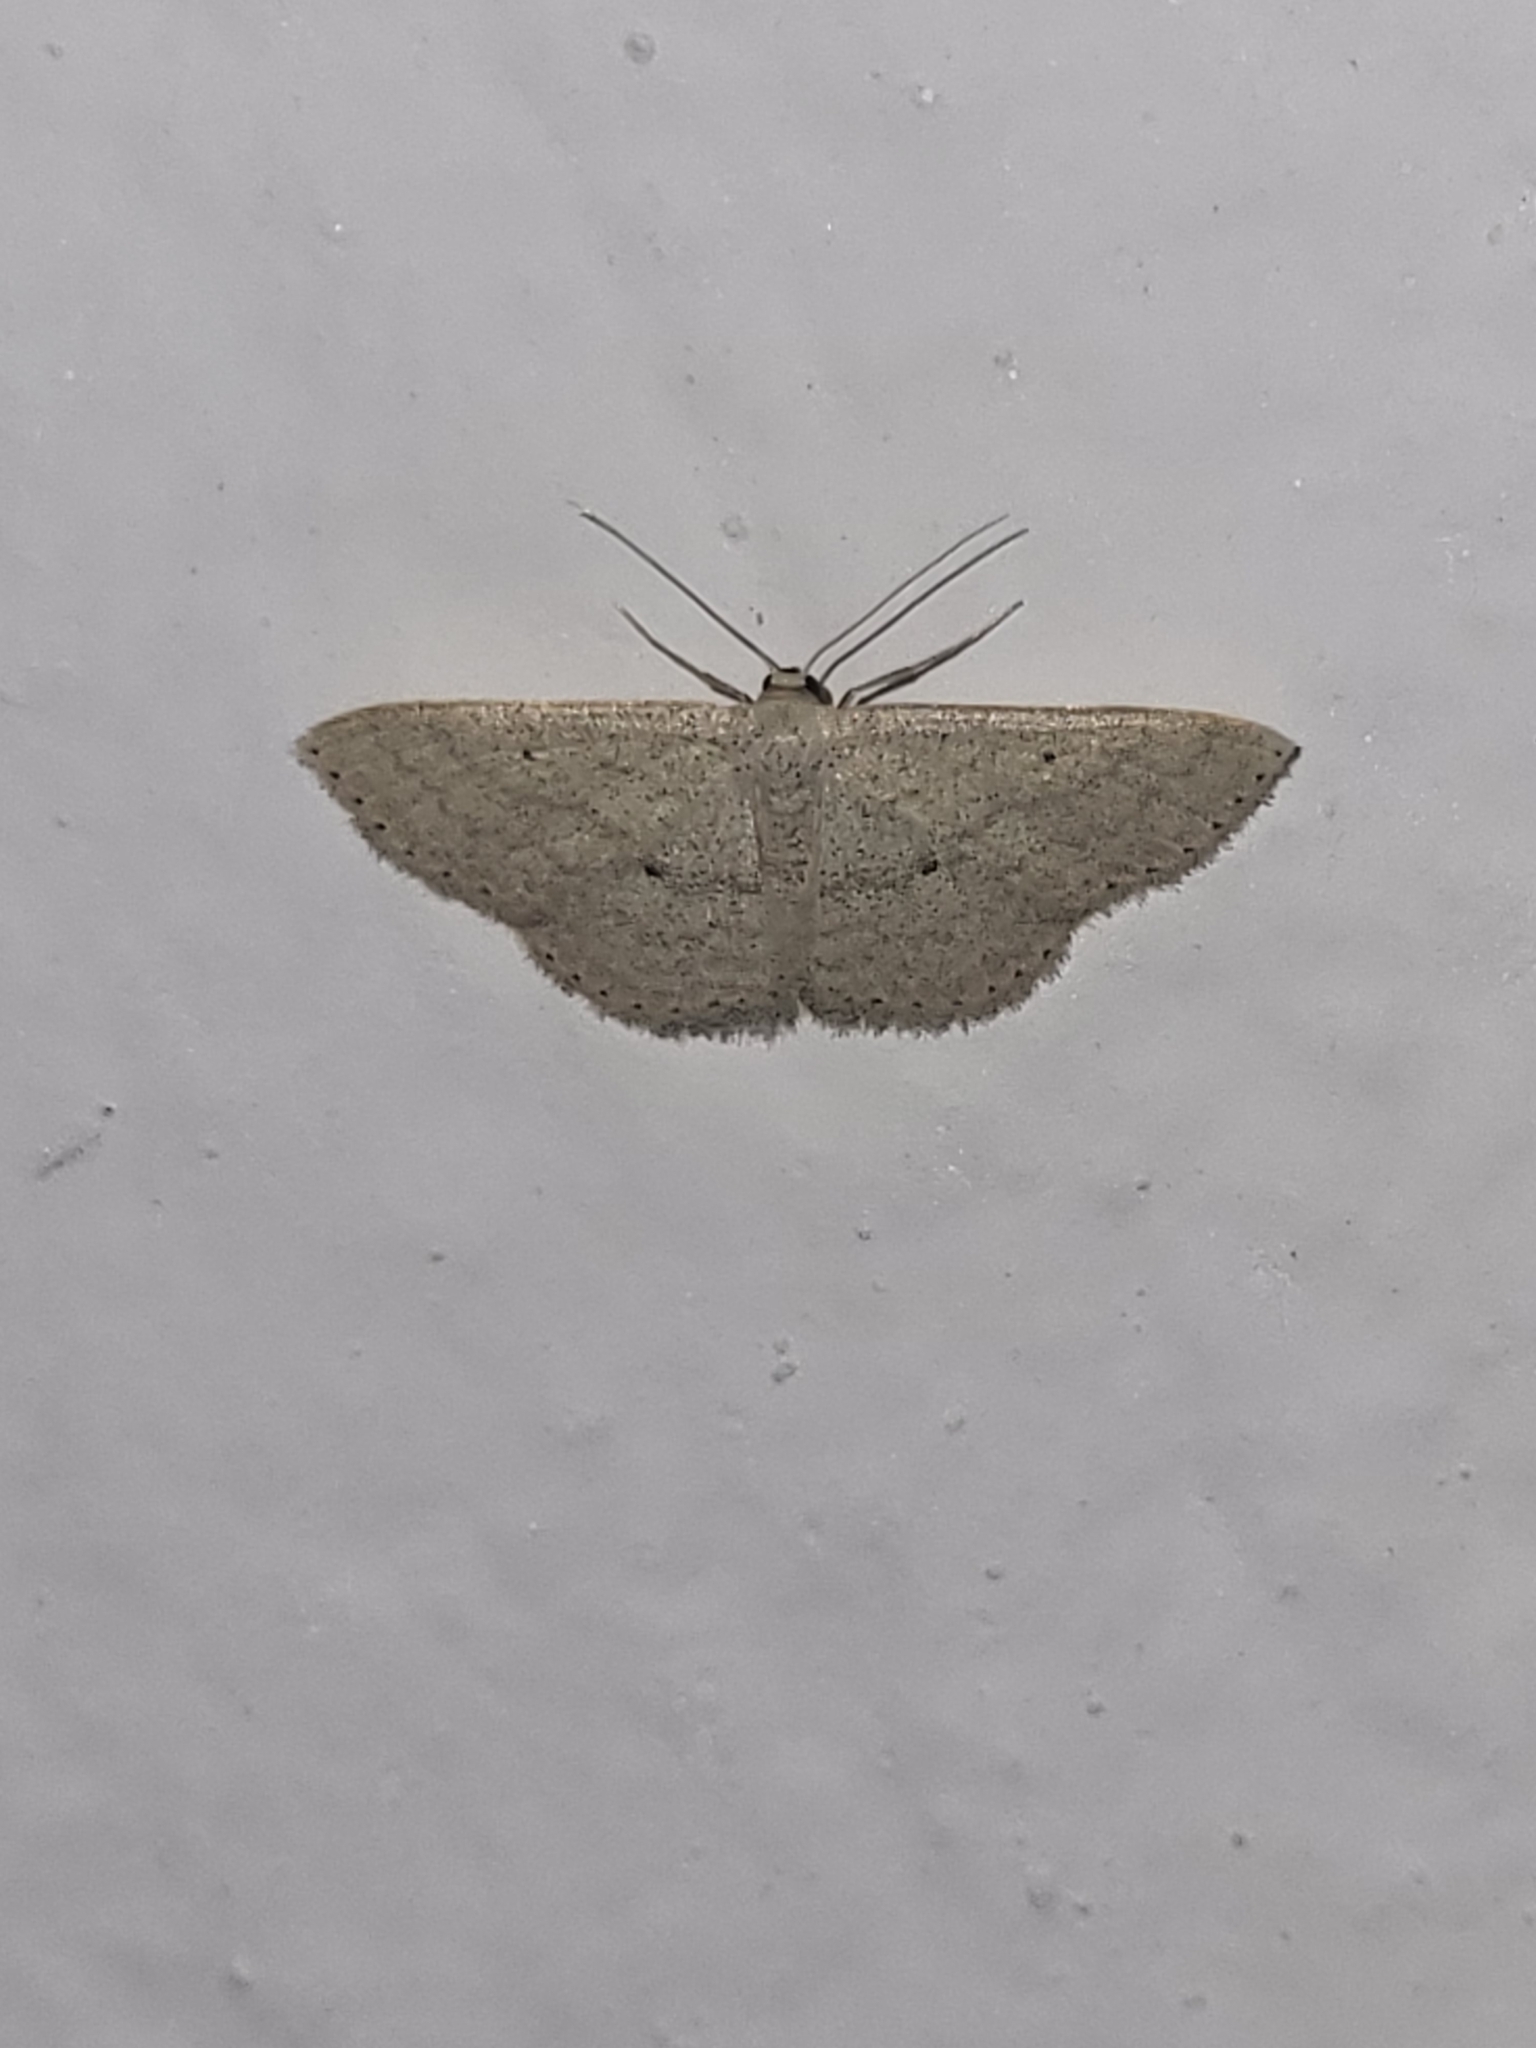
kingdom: Animalia
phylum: Arthropoda
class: Insecta
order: Lepidoptera
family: Geometridae
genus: Scopula
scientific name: Scopula minorata
